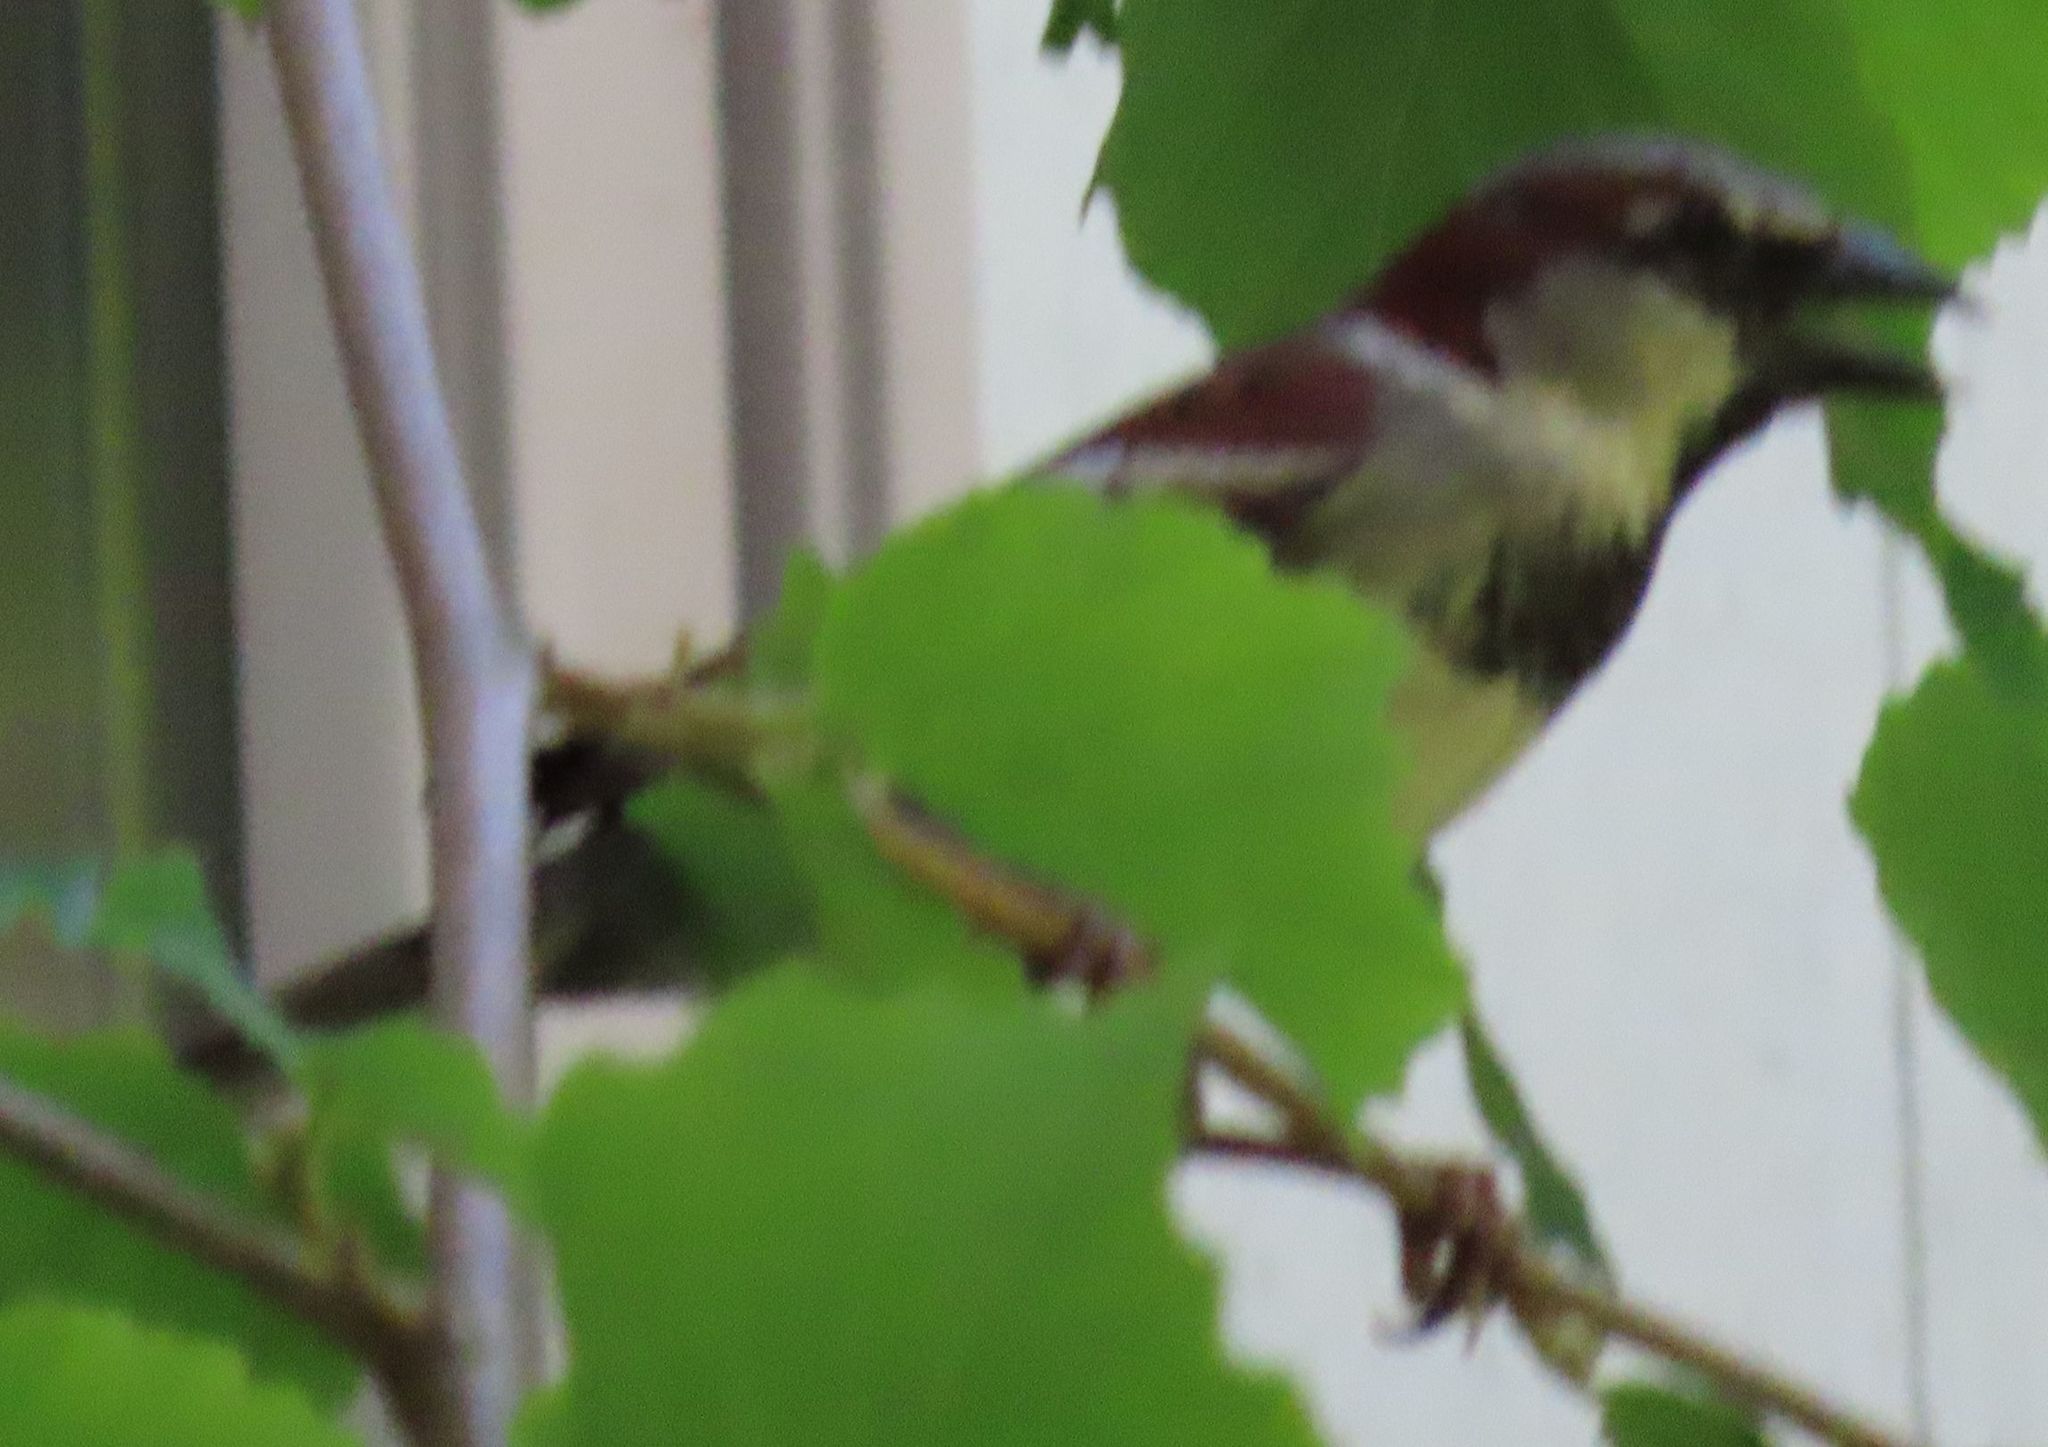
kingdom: Animalia
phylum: Chordata
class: Aves
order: Passeriformes
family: Passeridae
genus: Passer
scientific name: Passer domesticus
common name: House sparrow
